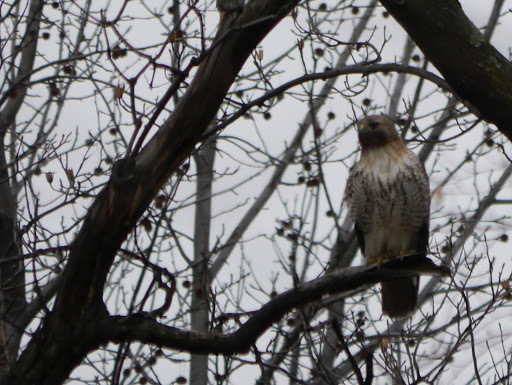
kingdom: Animalia
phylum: Chordata
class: Aves
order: Accipitriformes
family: Accipitridae
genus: Buteo
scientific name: Buteo jamaicensis
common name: Red-tailed hawk
